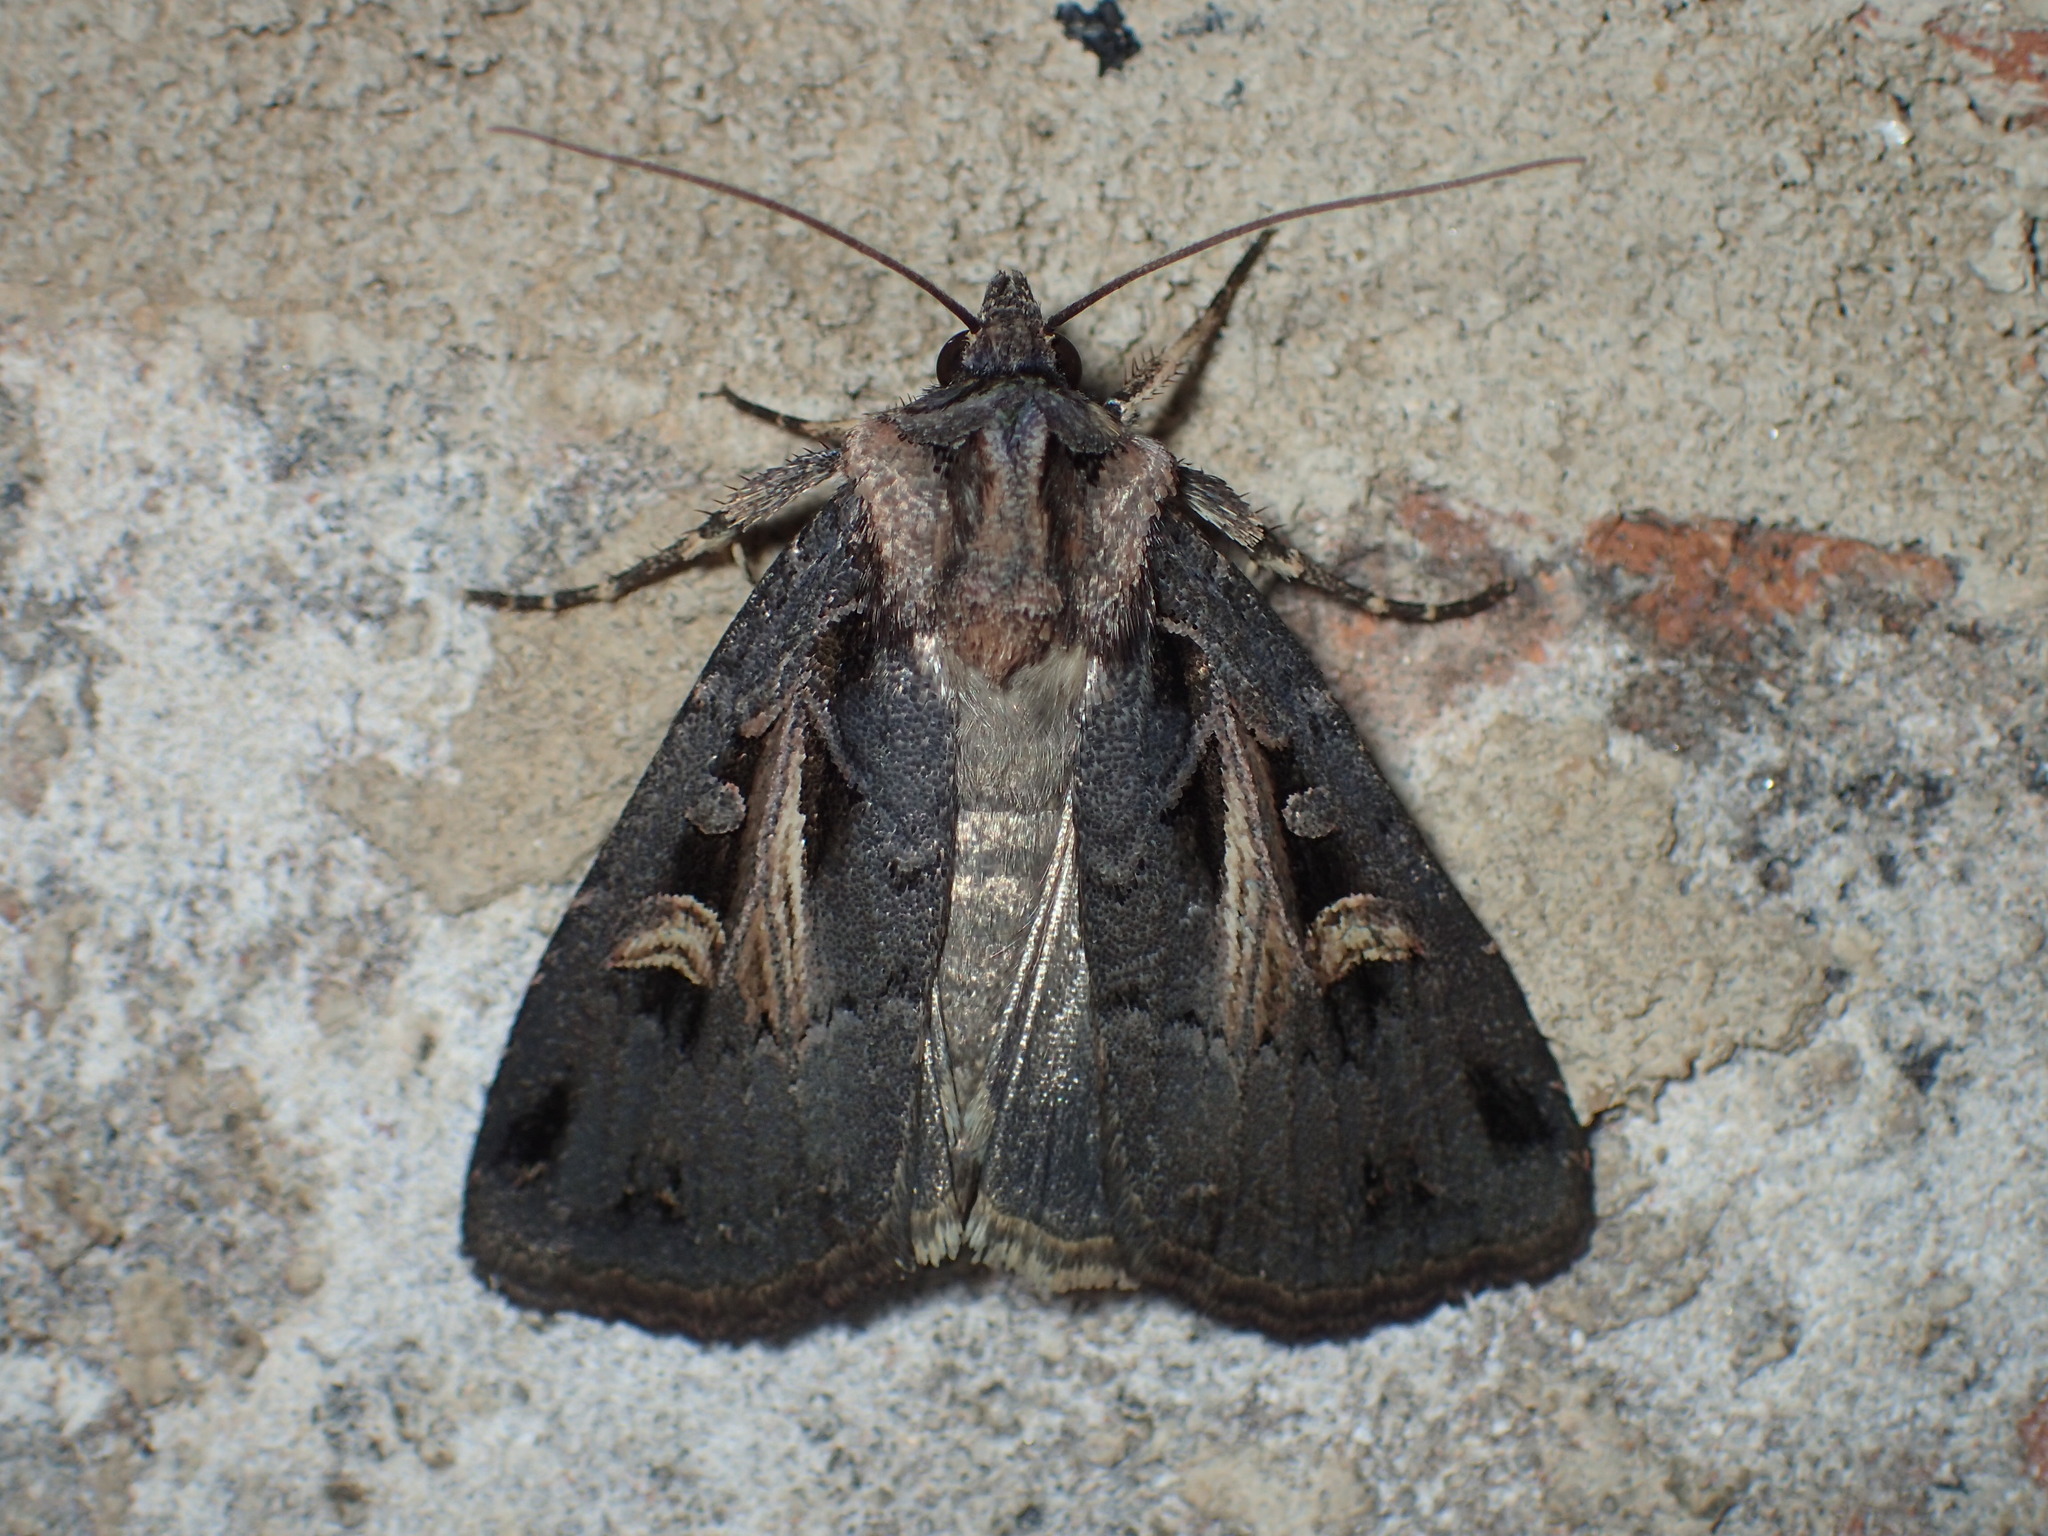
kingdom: Animalia
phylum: Arthropoda
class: Insecta
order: Lepidoptera
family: Noctuidae
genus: Feltia
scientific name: Feltia herilis
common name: Master's dart
